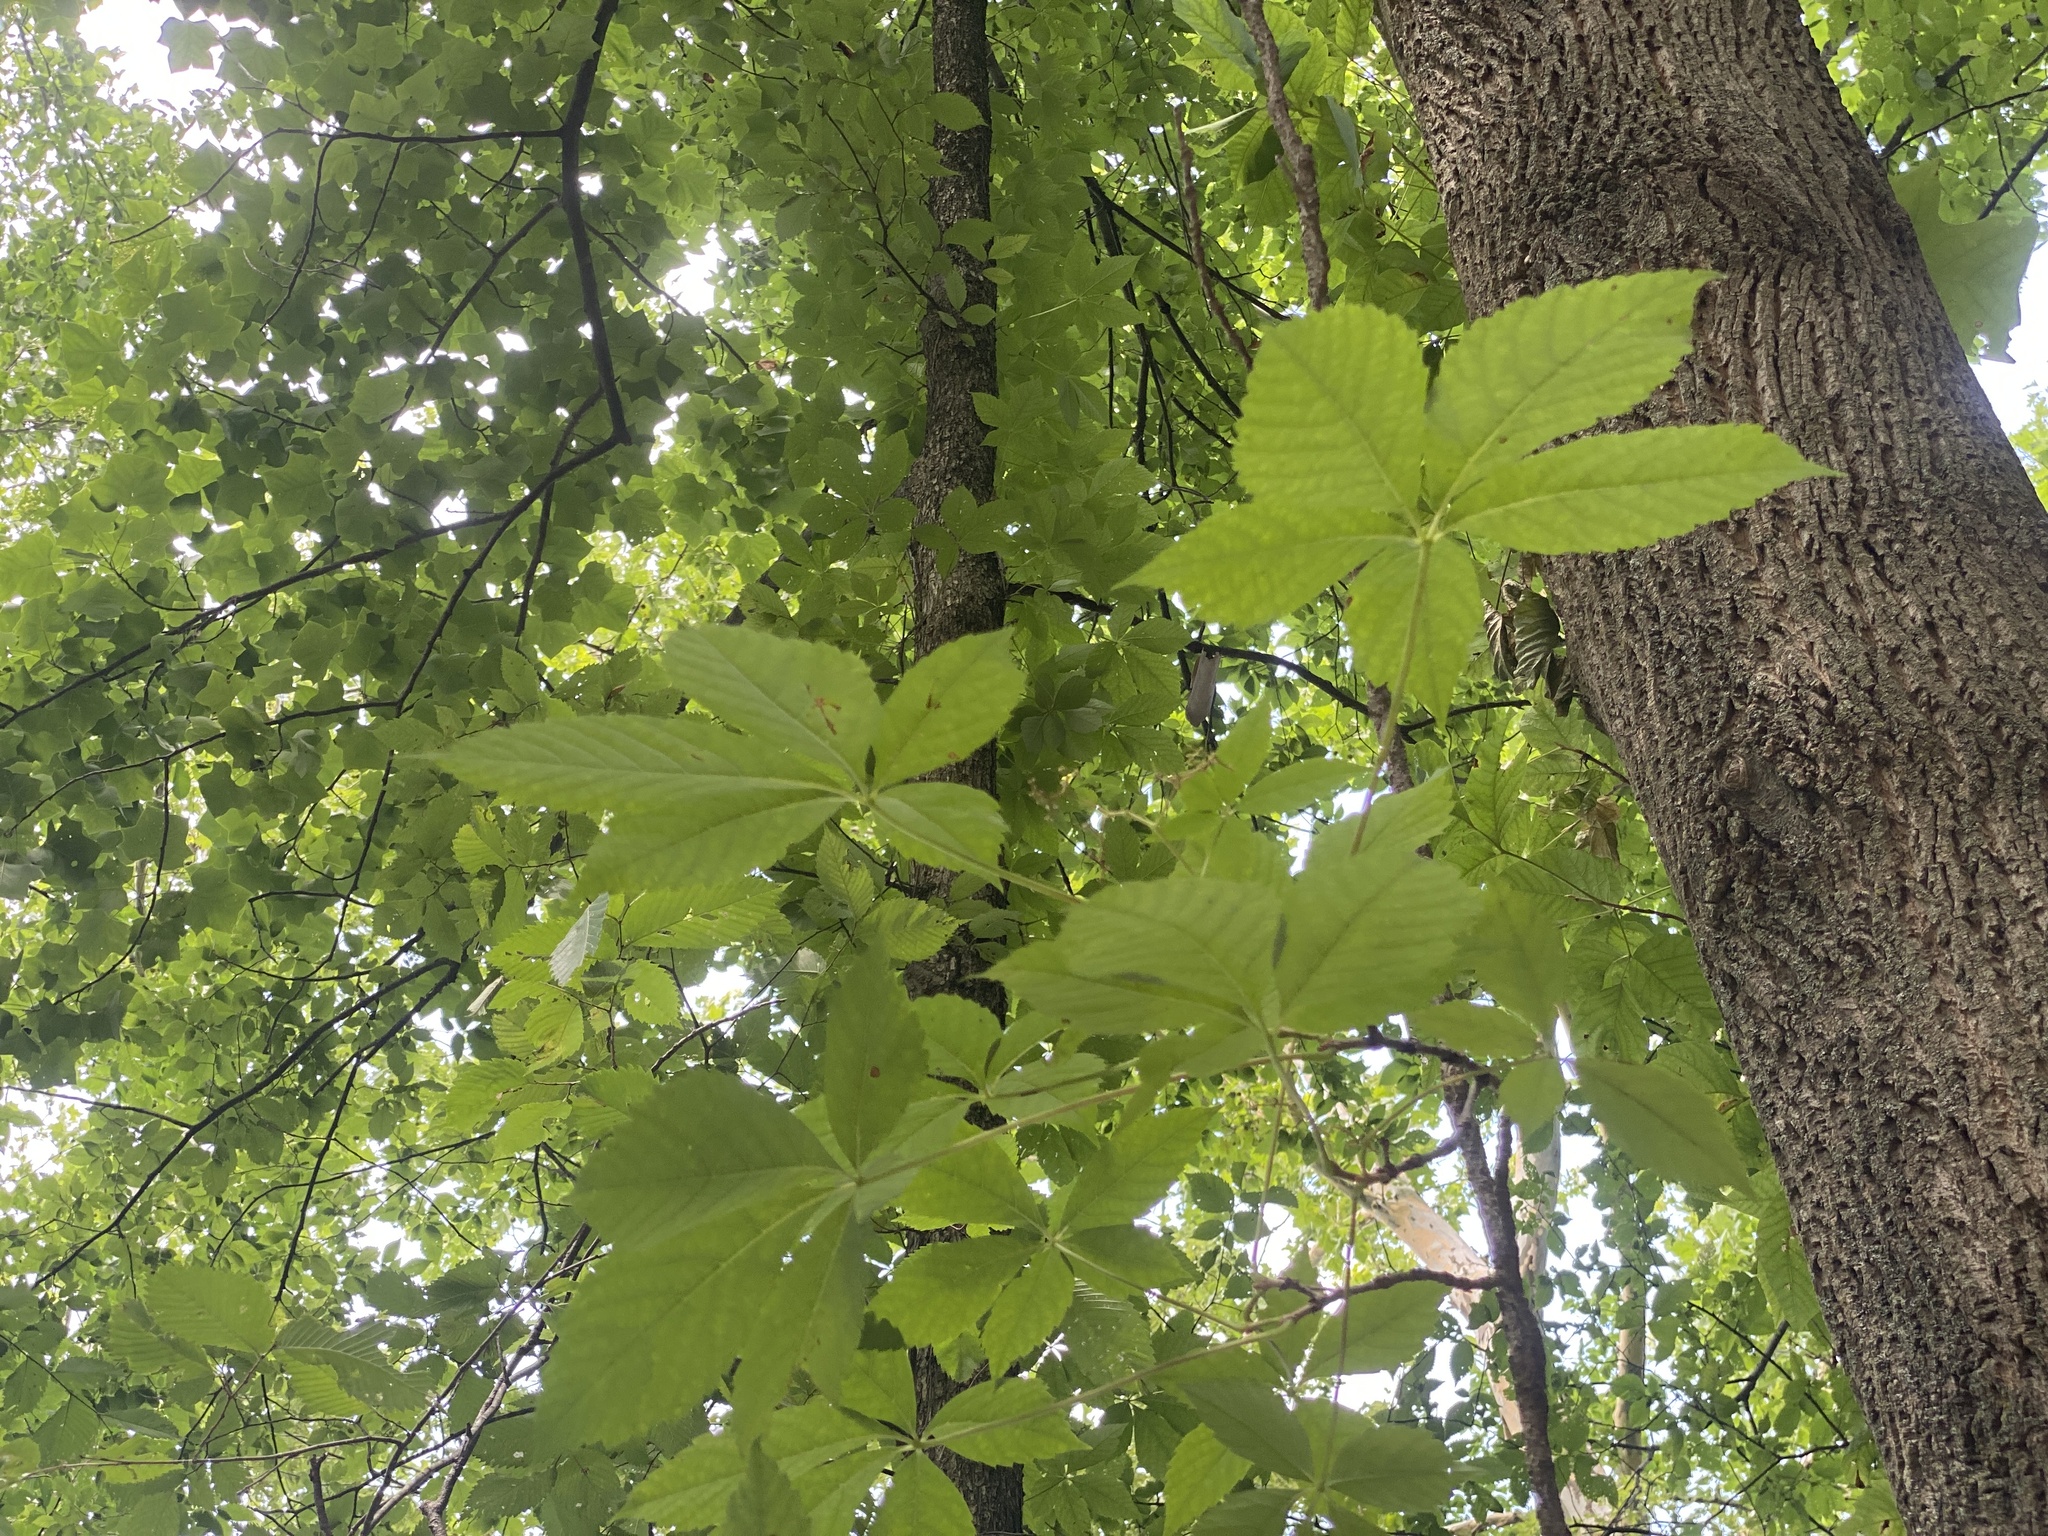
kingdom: Plantae
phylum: Tracheophyta
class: Magnoliopsida
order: Vitales
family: Vitaceae
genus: Parthenocissus
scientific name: Parthenocissus quinquefolia
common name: Virginia-creeper
